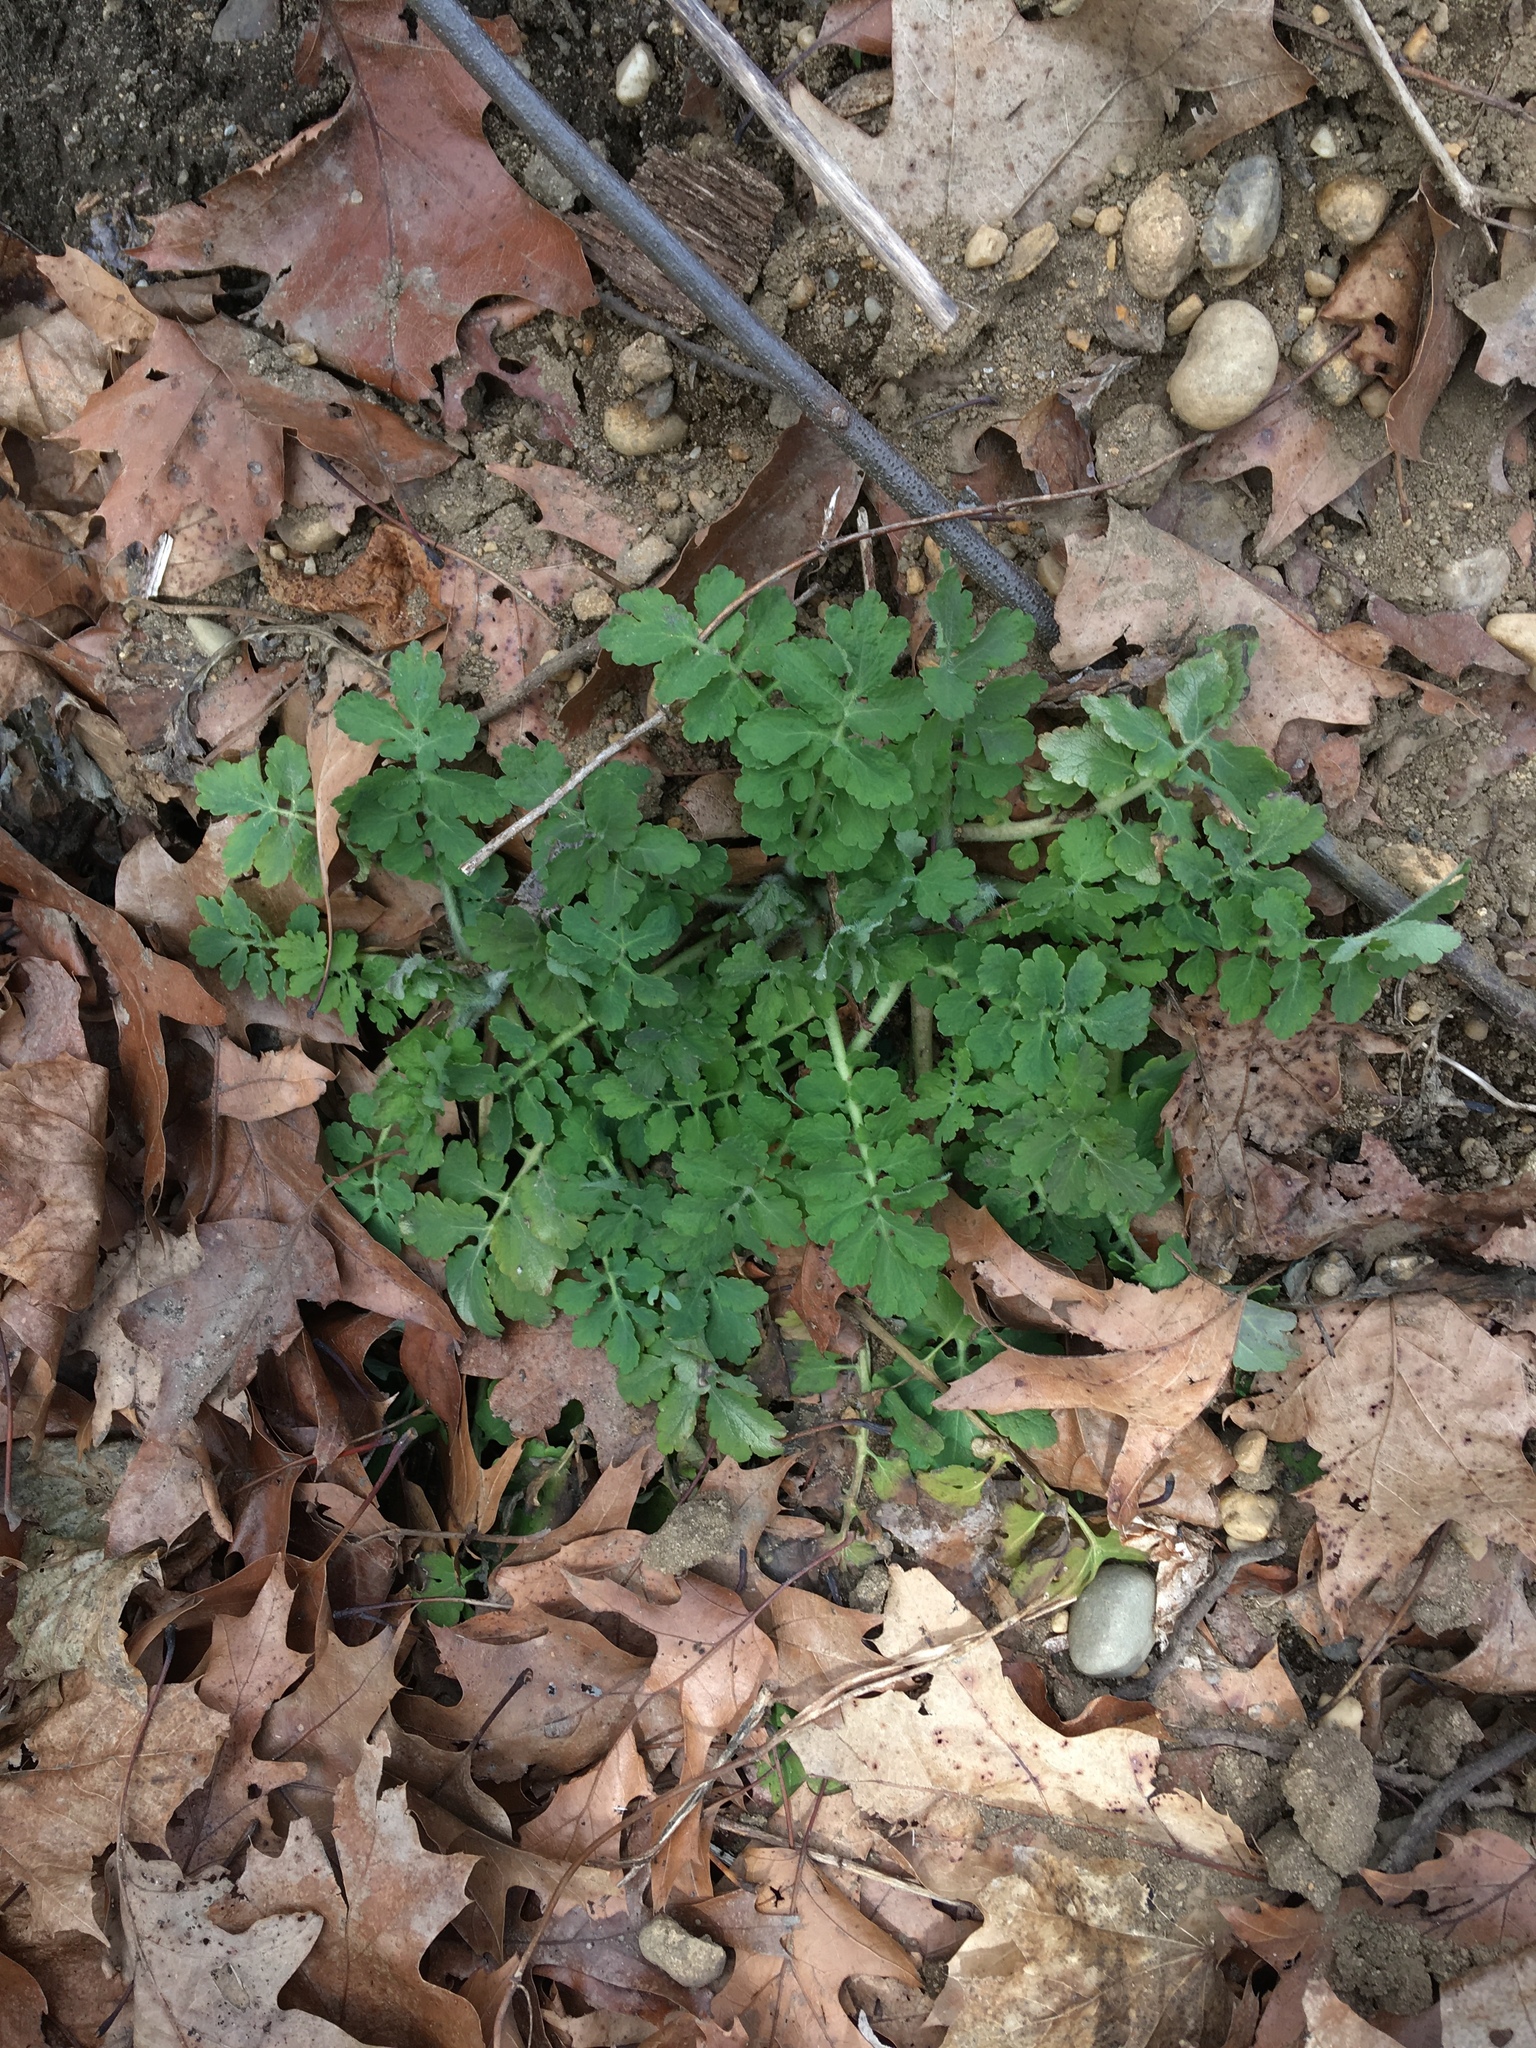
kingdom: Plantae
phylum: Tracheophyta
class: Magnoliopsida
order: Ranunculales
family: Papaveraceae
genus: Chelidonium
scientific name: Chelidonium majus
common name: Greater celandine
